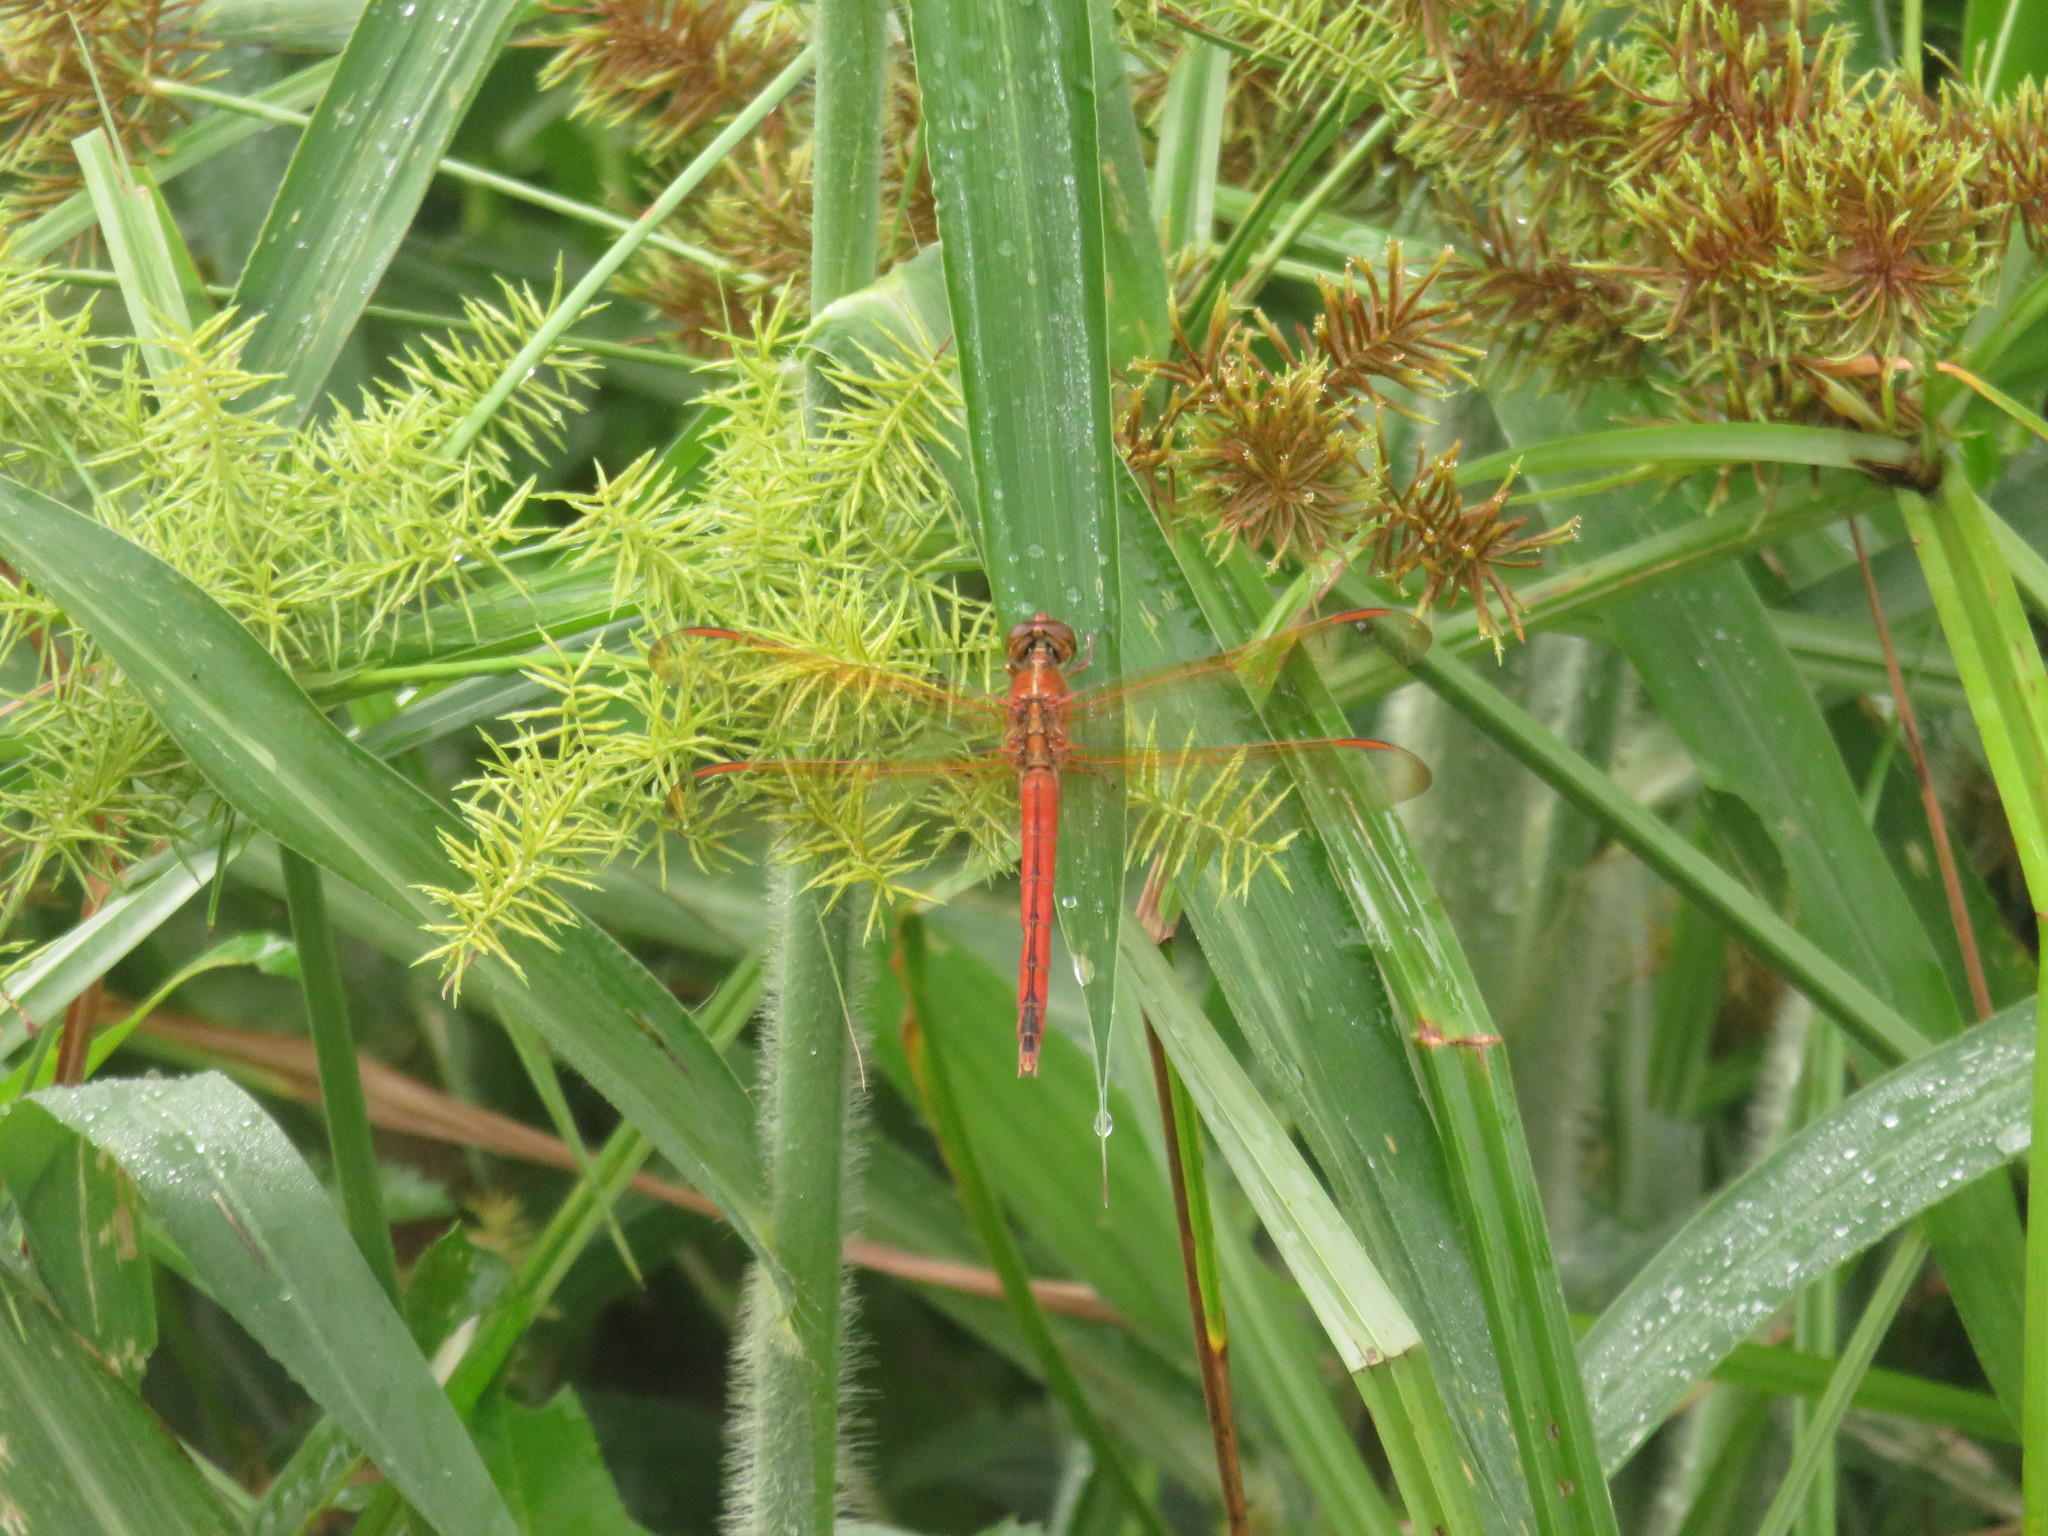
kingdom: Animalia
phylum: Arthropoda
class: Insecta
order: Odonata
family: Libellulidae
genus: Libellula
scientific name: Libellula needhami
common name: Needham's skimmer
